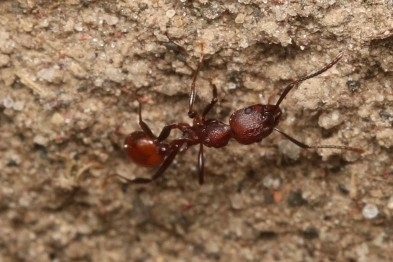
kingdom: Animalia
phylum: Arthropoda
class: Insecta
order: Hymenoptera
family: Formicidae
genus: Aphaenogaster
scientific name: Aphaenogaster tennesseensis
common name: Tennessee thread-waisted ant
